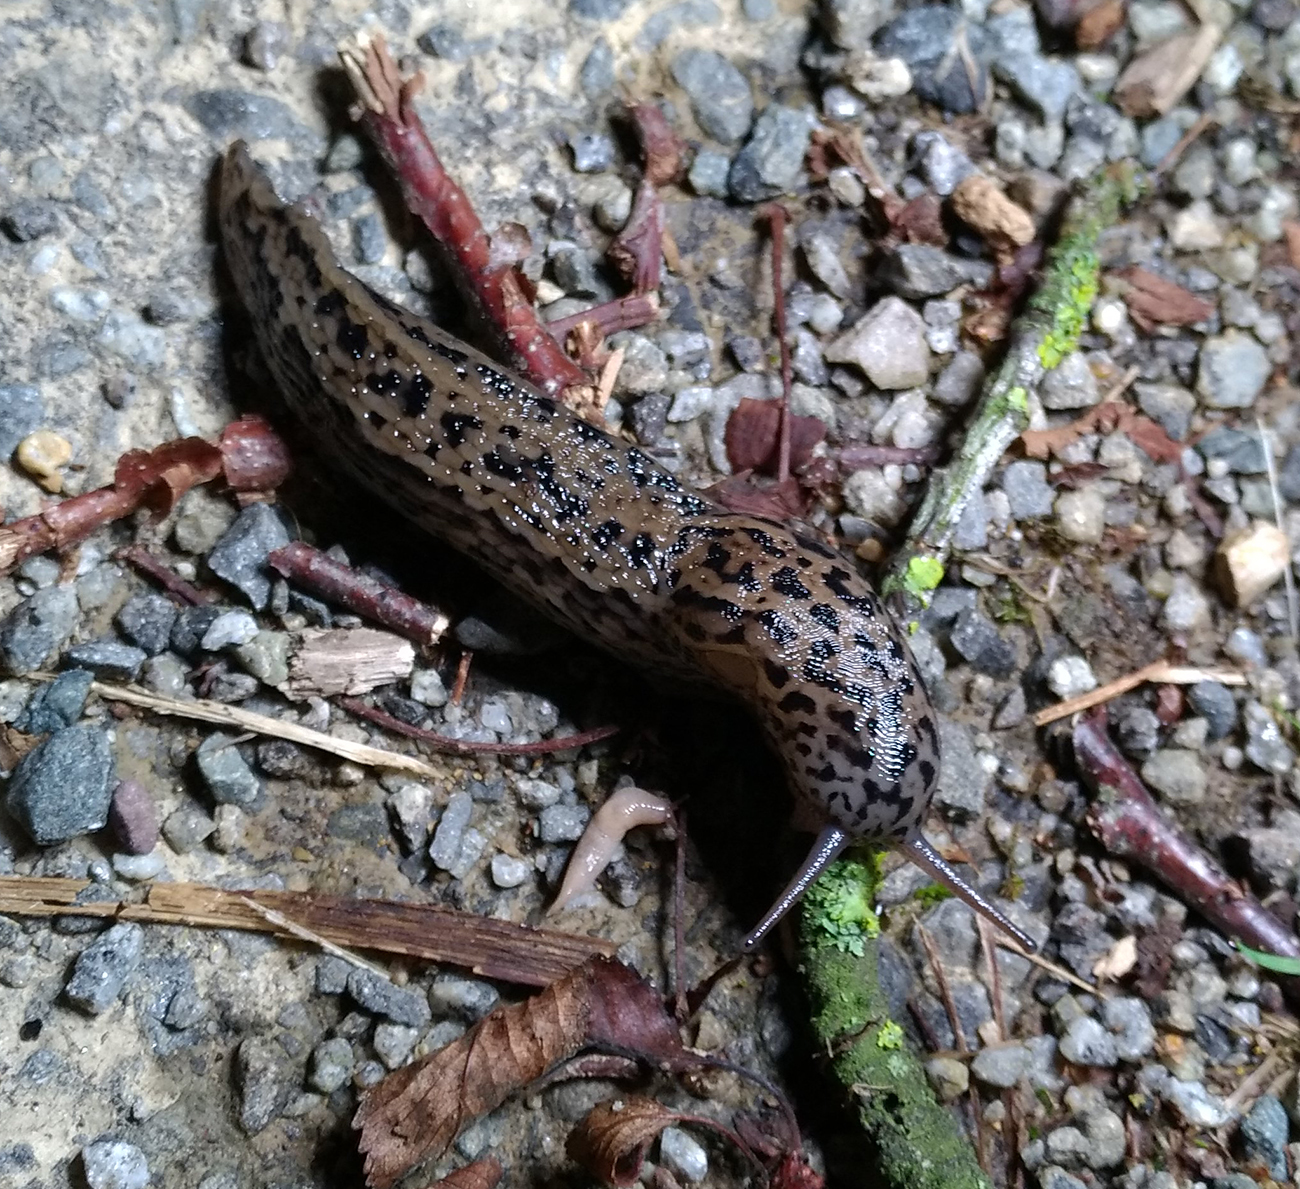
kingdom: Animalia
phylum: Mollusca
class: Gastropoda
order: Stylommatophora
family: Limacidae
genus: Limax
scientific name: Limax maximus
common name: Great grey slug
